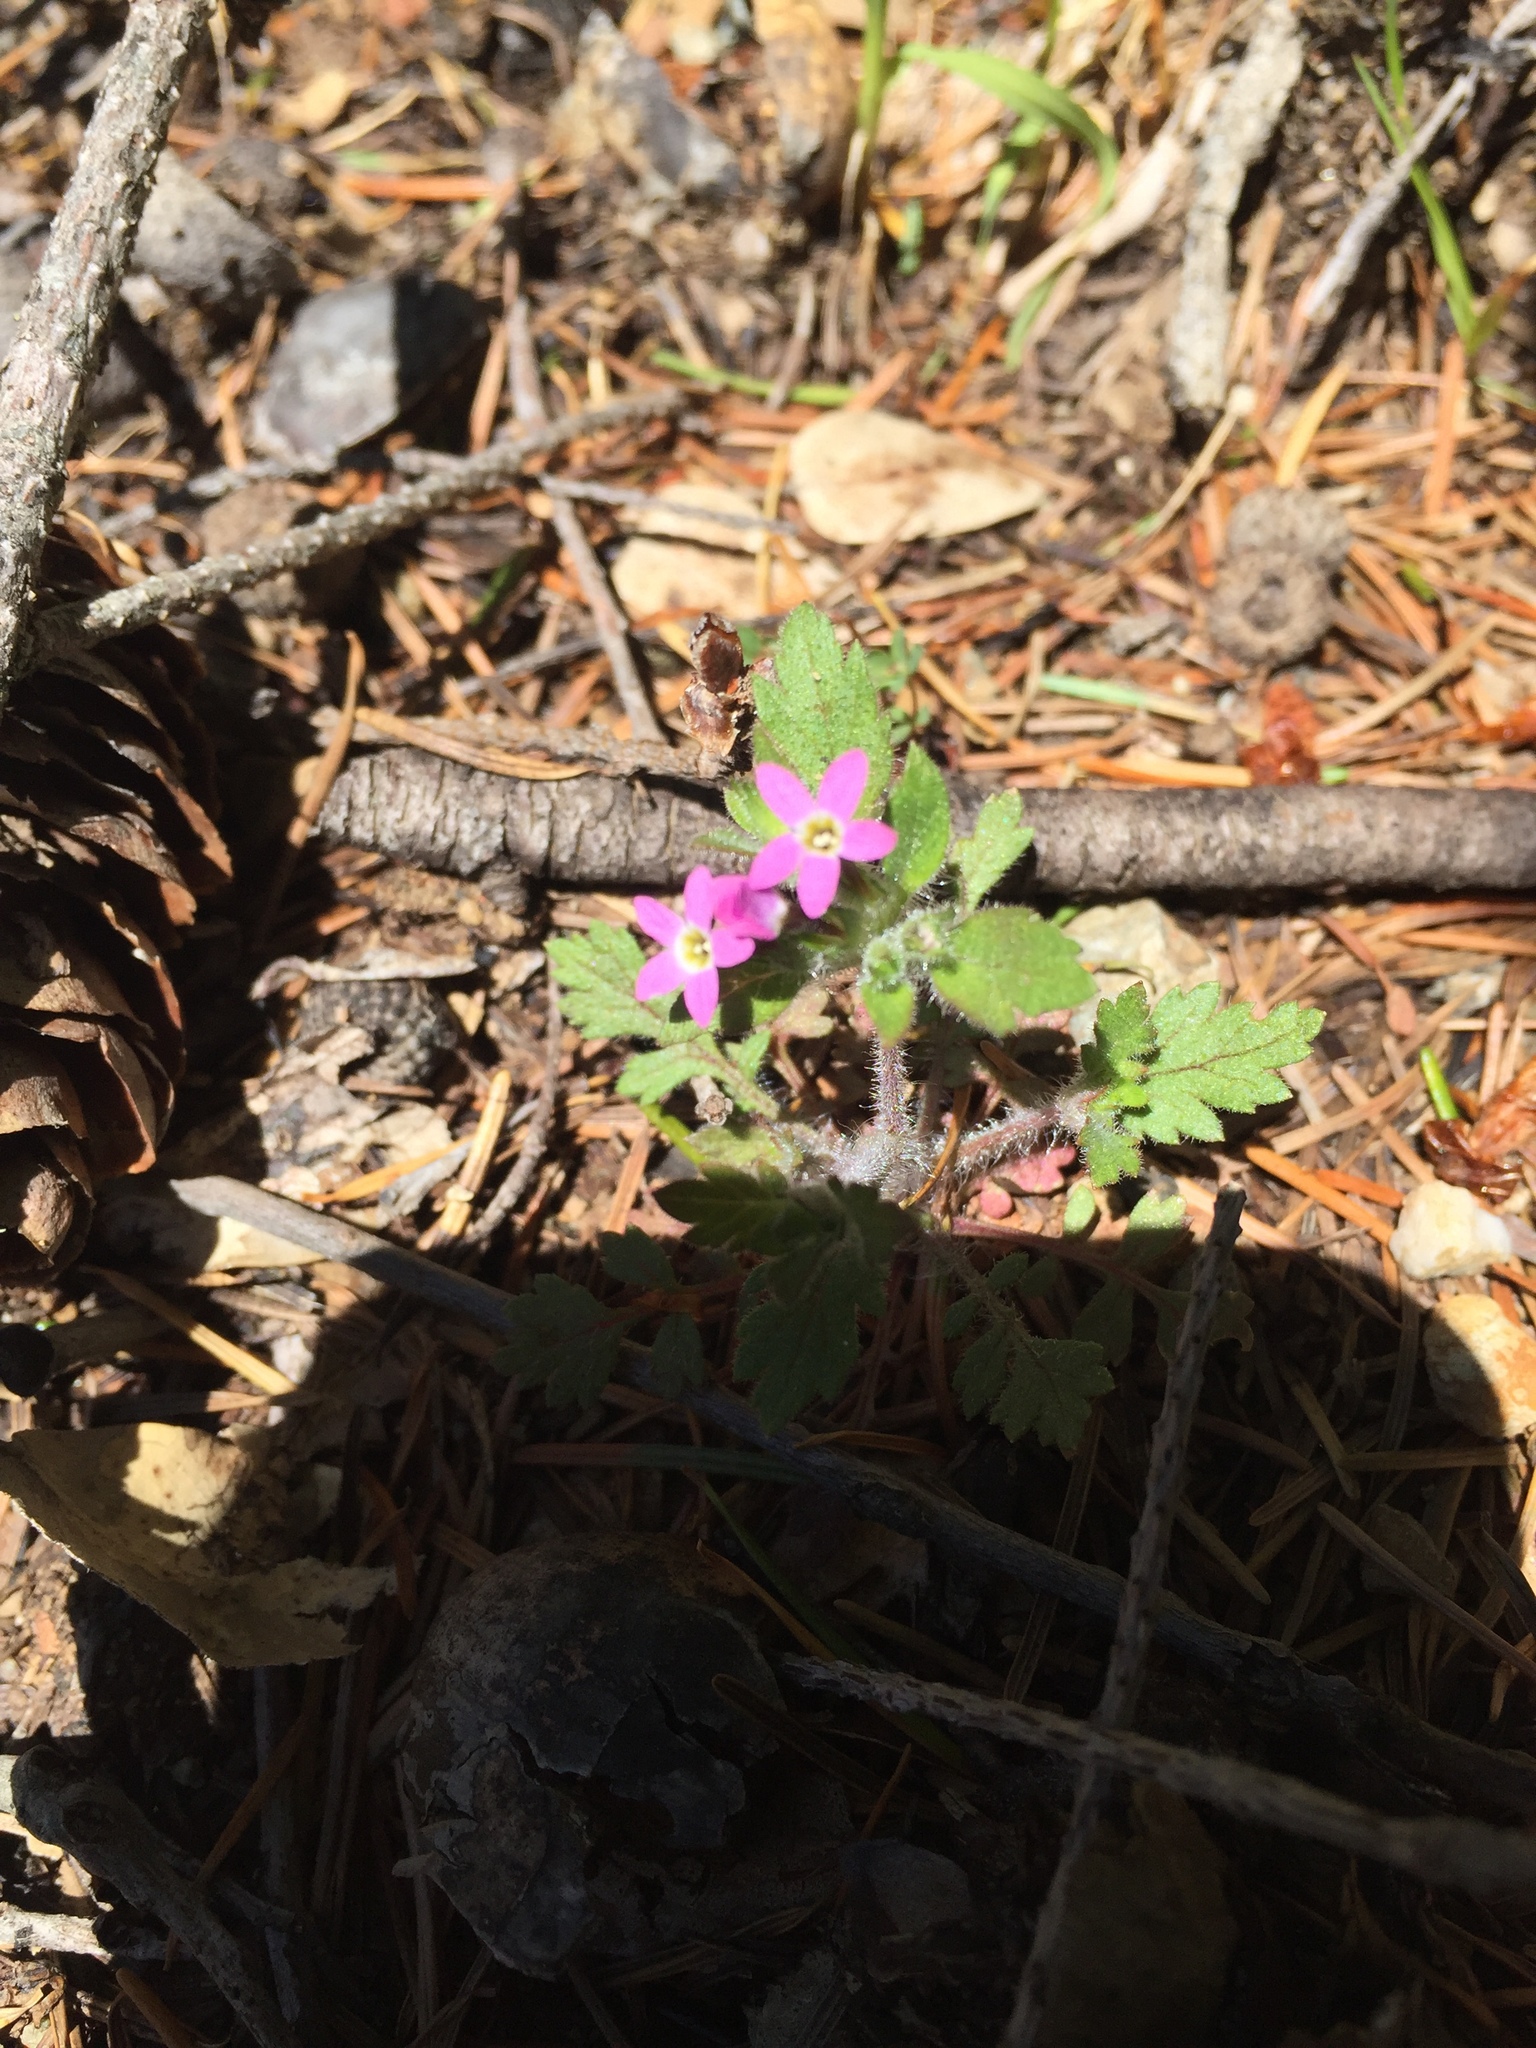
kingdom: Plantae
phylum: Tracheophyta
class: Magnoliopsida
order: Ericales
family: Polemoniaceae
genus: Collomia
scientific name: Collomia heterophylla
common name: Variable-leaved collomia
